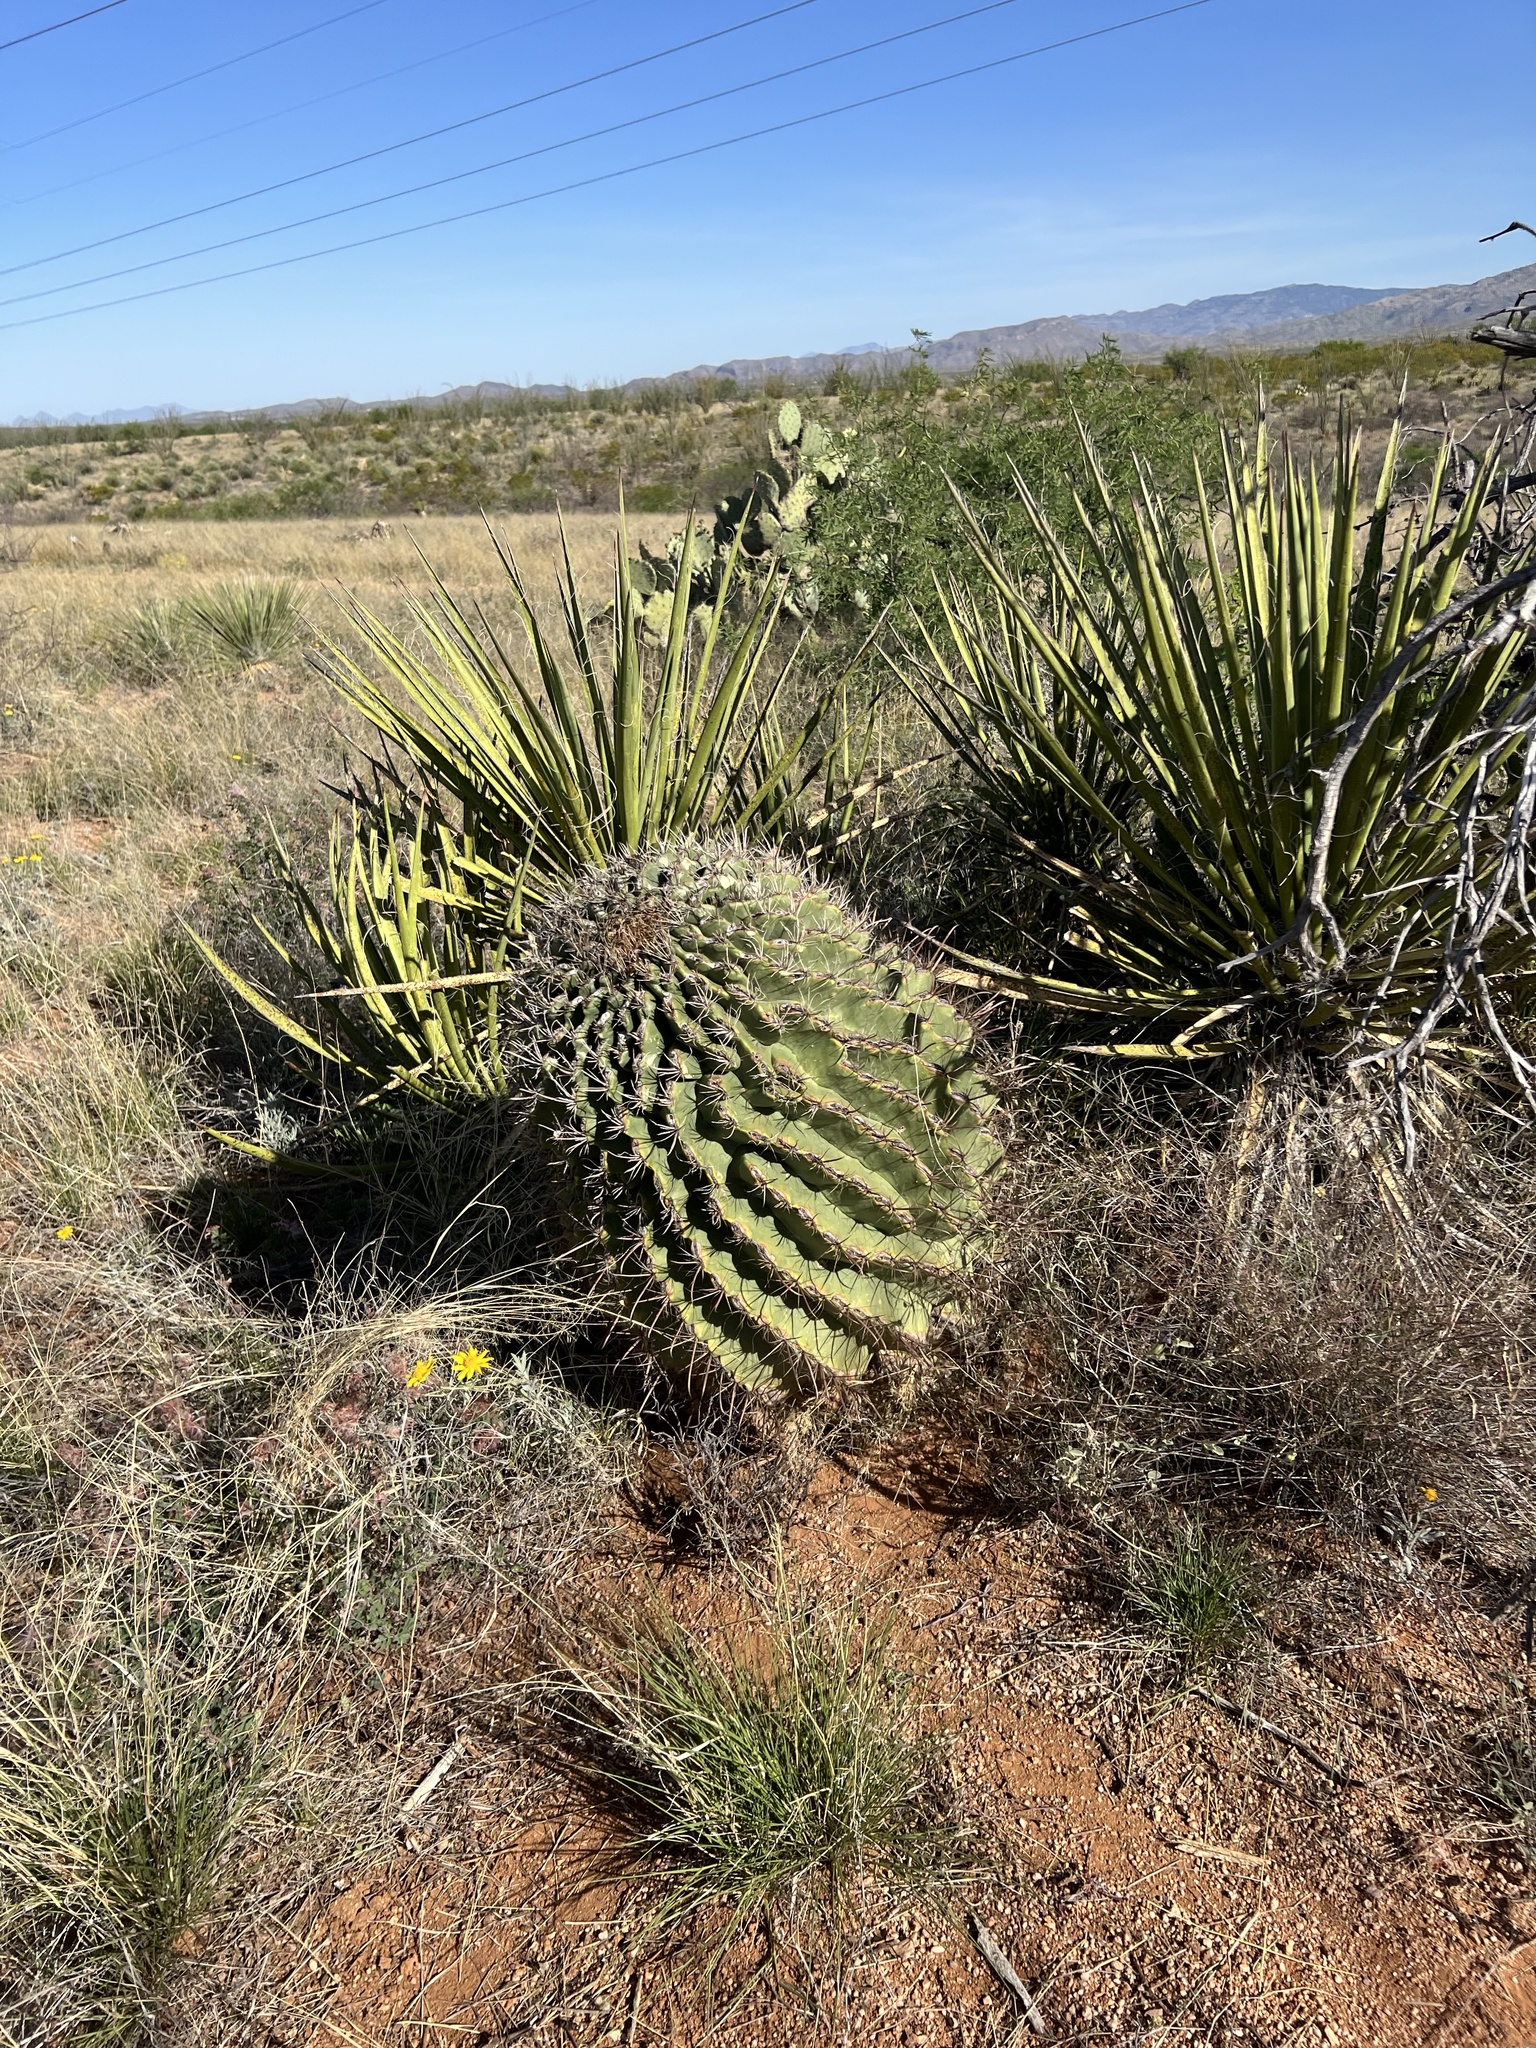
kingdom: Plantae
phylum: Tracheophyta
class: Magnoliopsida
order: Caryophyllales
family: Cactaceae
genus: Ferocactus
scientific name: Ferocactus wislizeni
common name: Candy barrel cactus
